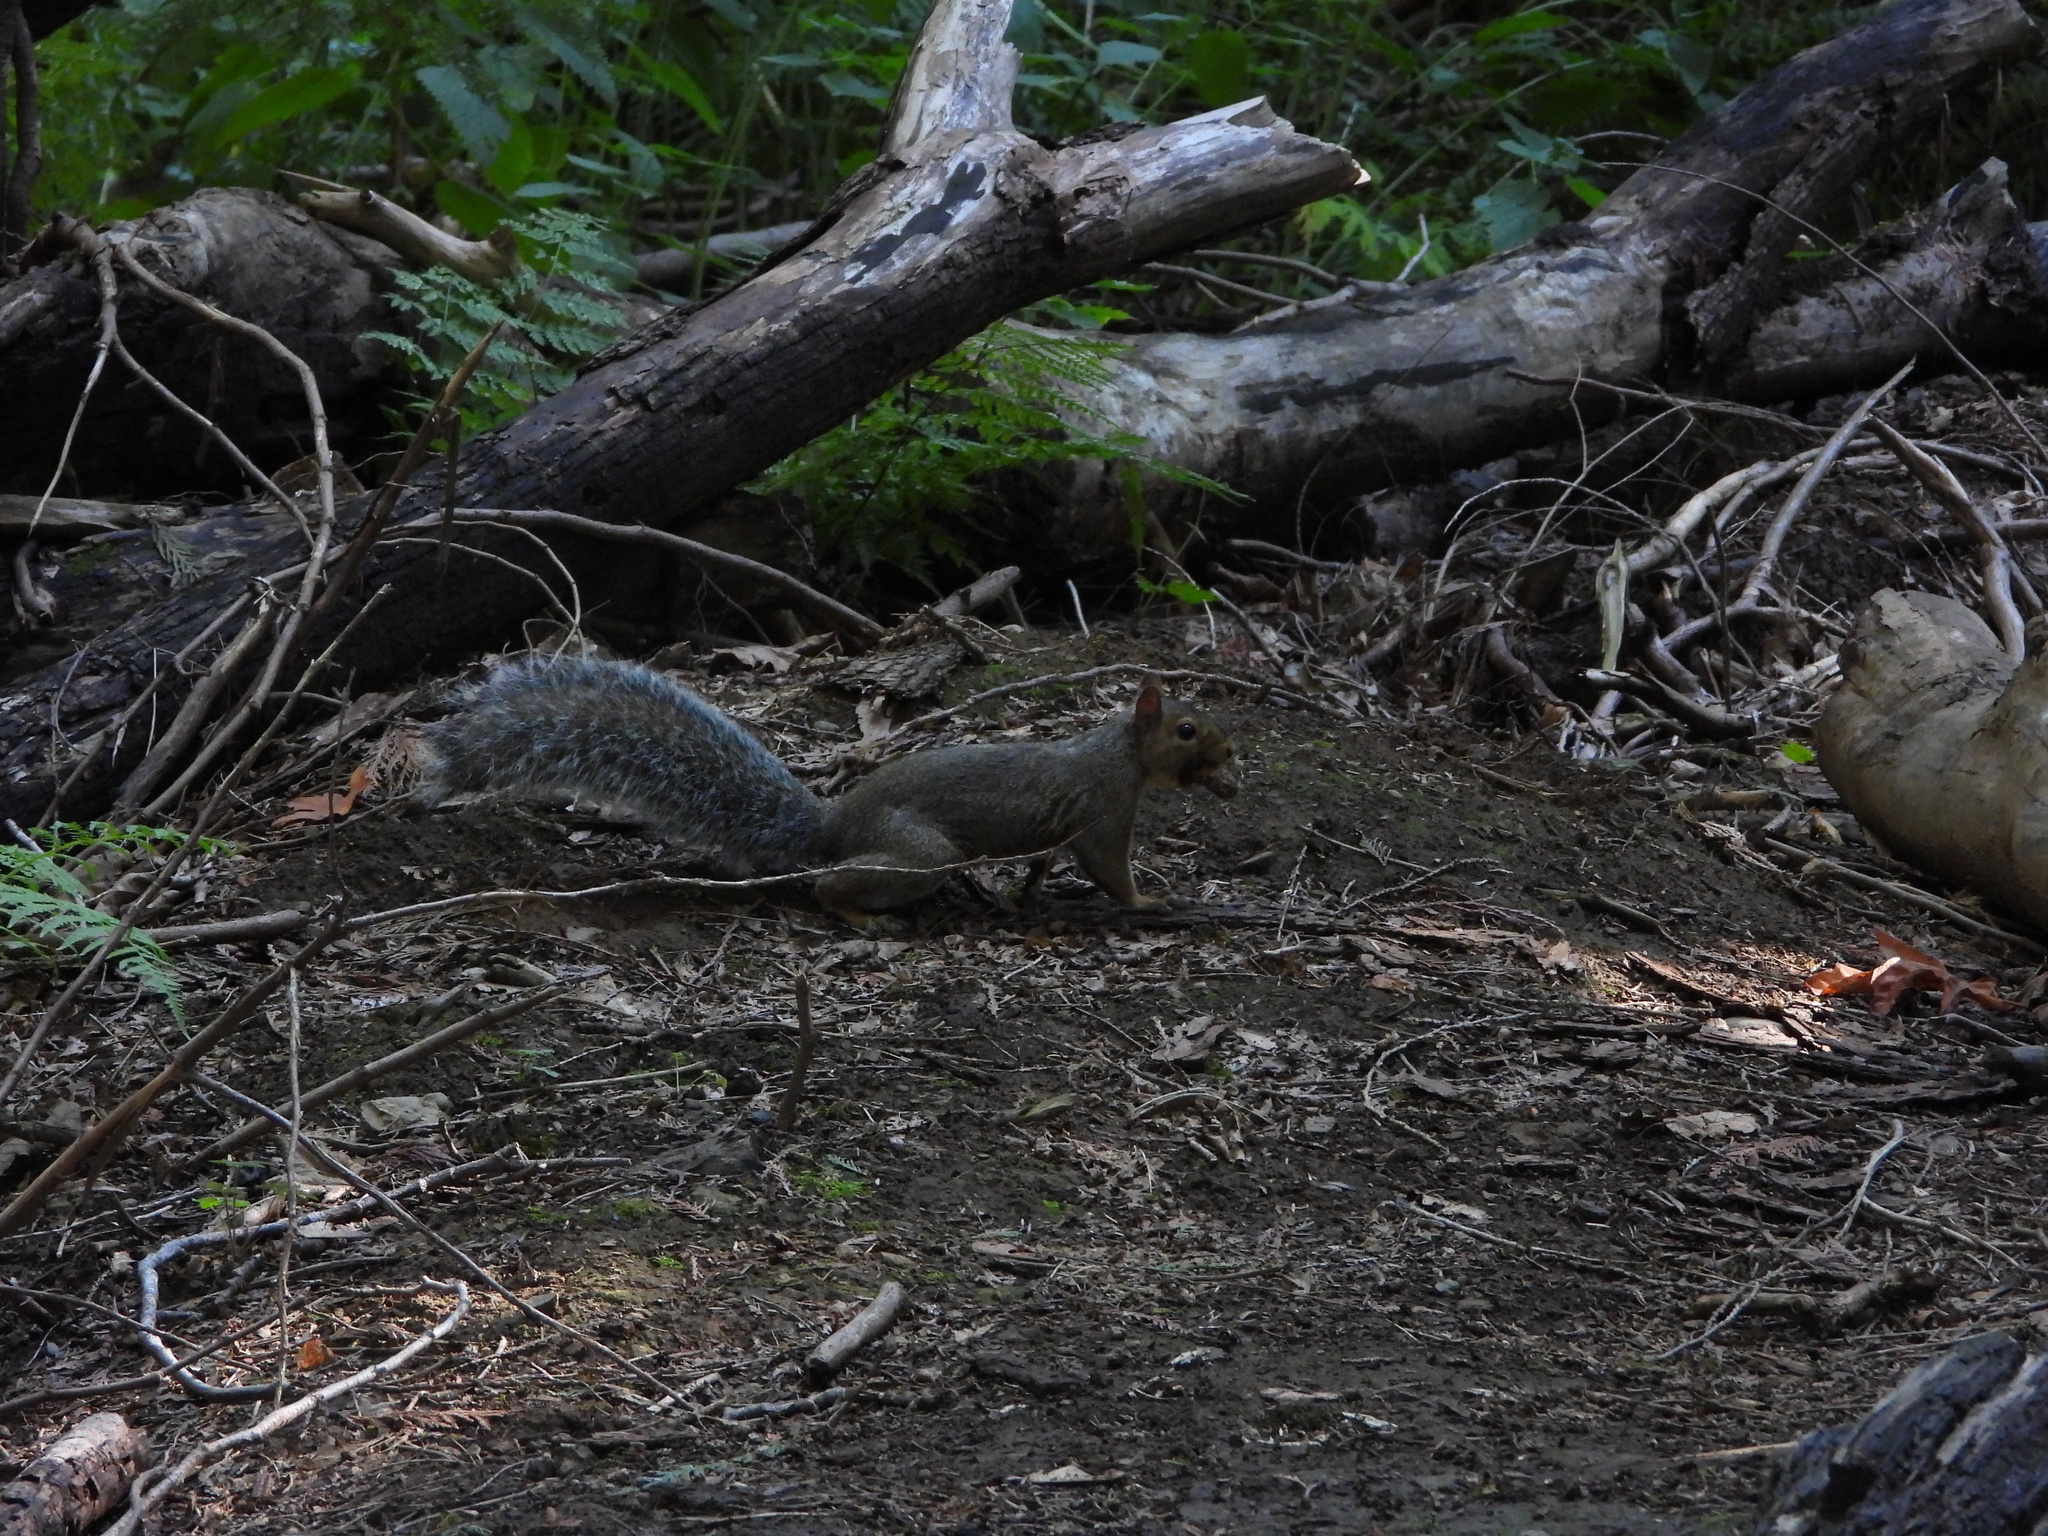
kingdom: Animalia
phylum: Chordata
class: Mammalia
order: Rodentia
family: Sciuridae
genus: Sciurus
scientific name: Sciurus carolinensis
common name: Eastern gray squirrel
